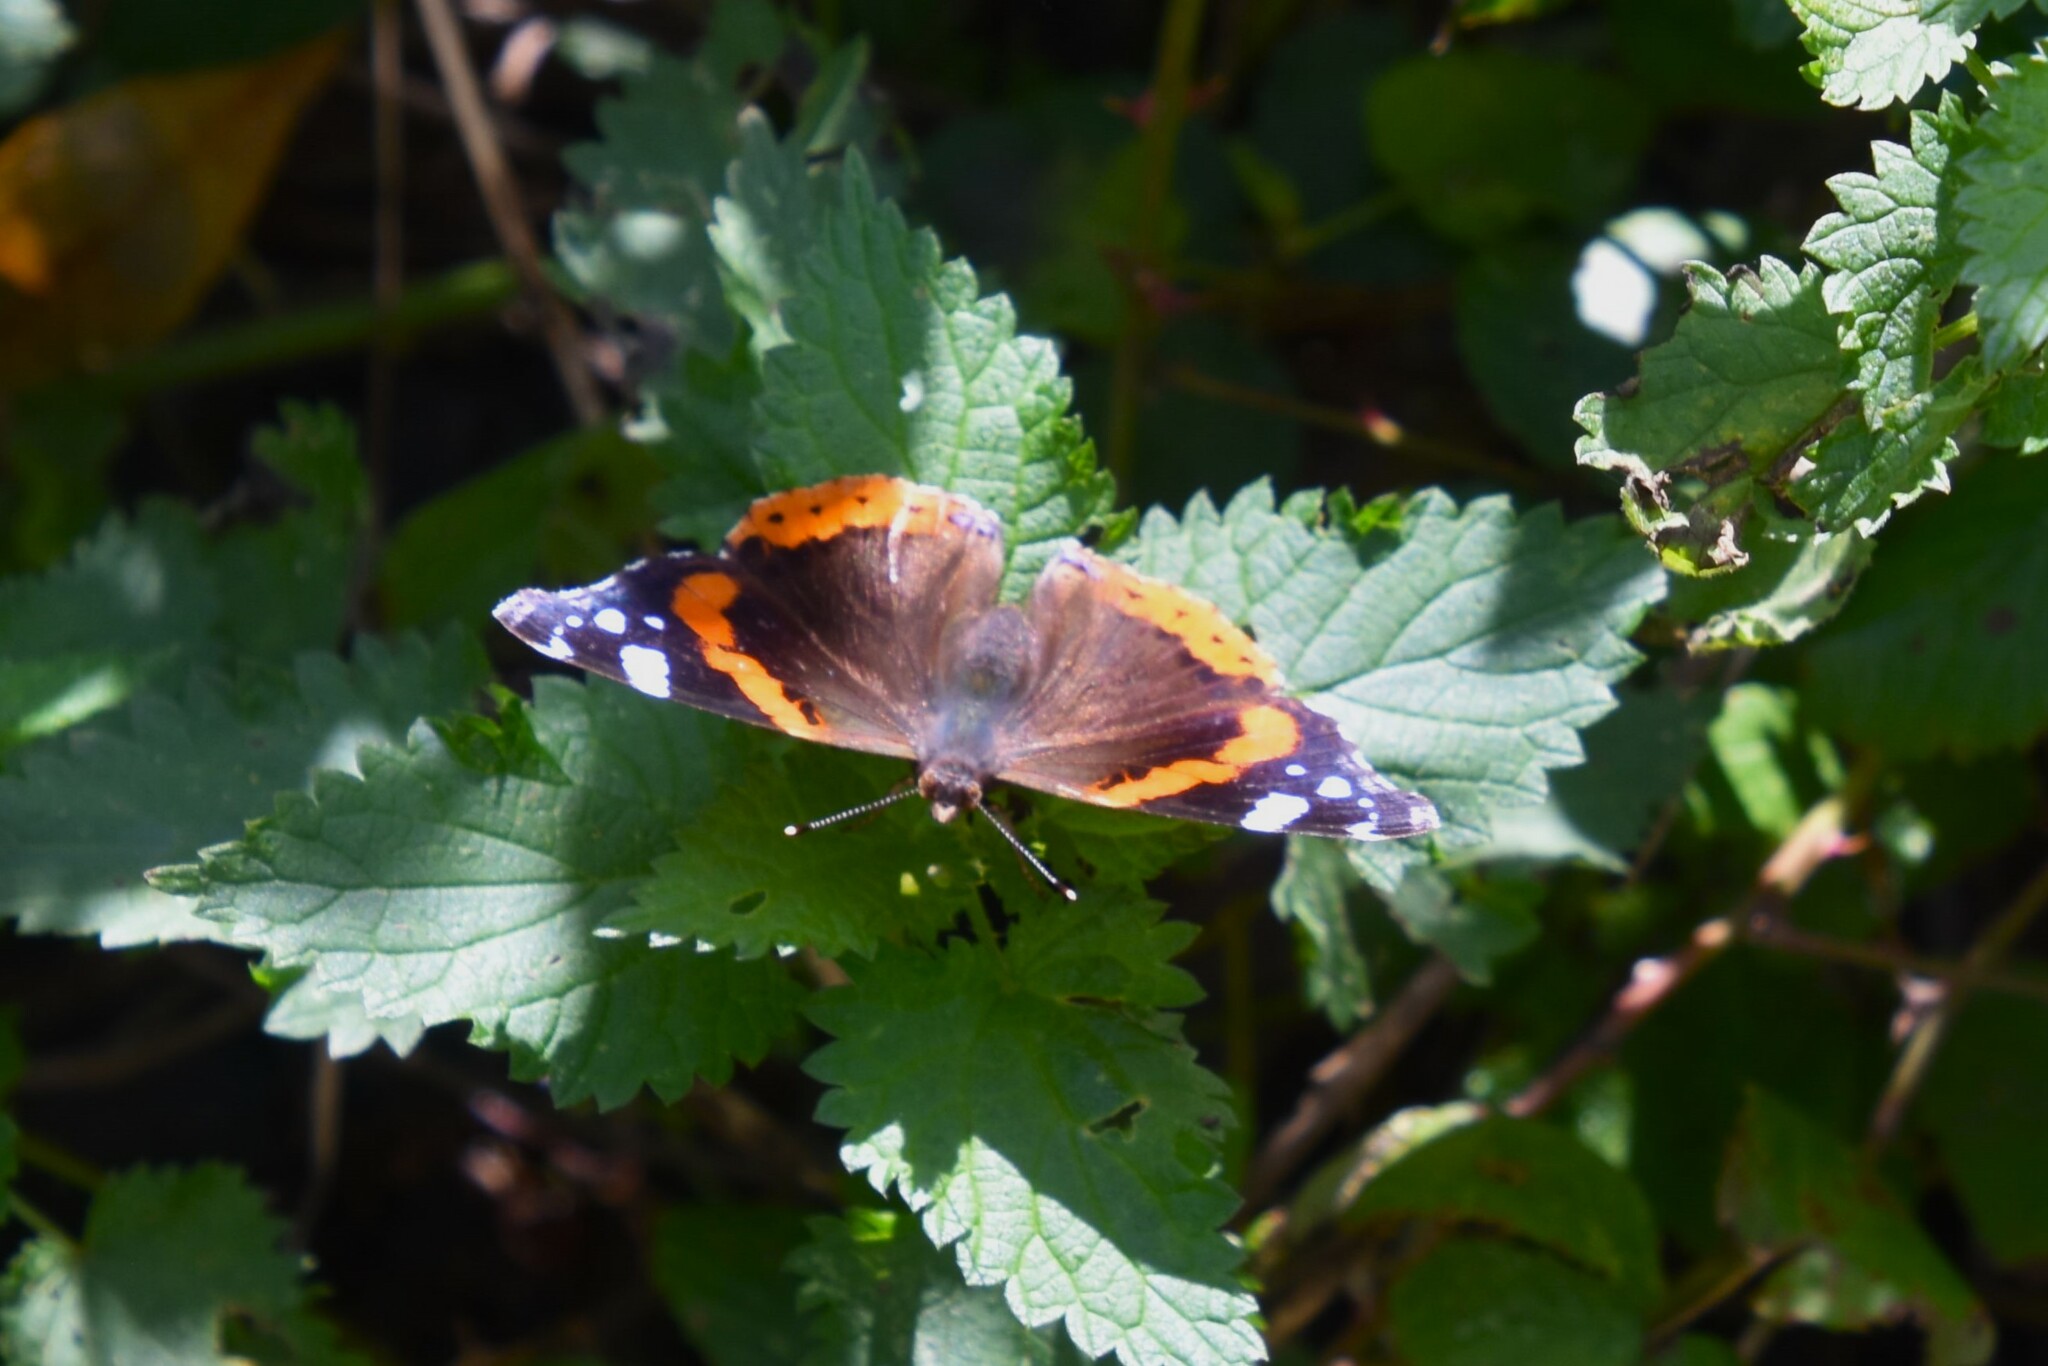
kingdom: Animalia
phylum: Arthropoda
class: Insecta
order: Lepidoptera
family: Nymphalidae
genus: Vanessa
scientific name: Vanessa atalanta
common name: Red admiral
